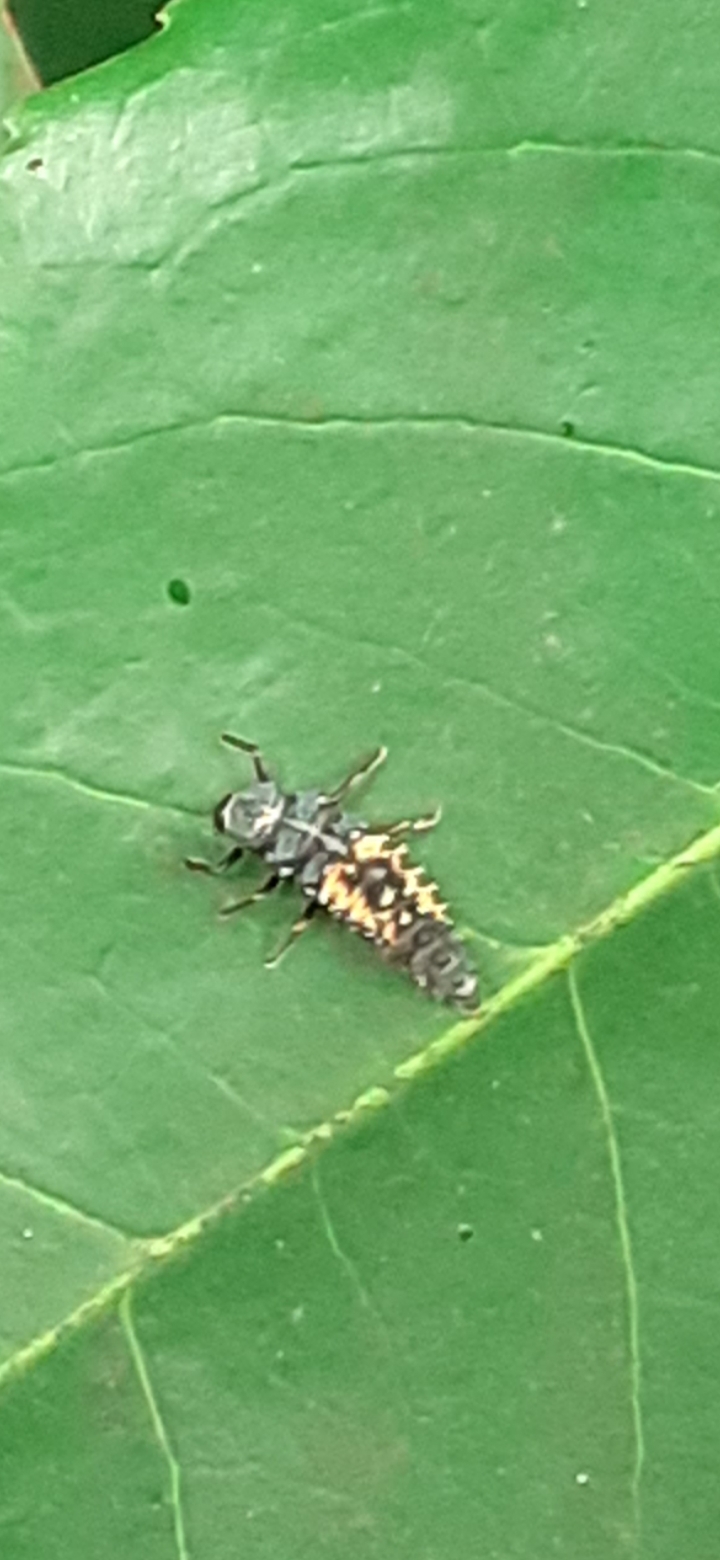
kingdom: Animalia
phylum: Arthropoda
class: Insecta
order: Coleoptera
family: Coccinellidae
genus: Harmonia
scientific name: Harmonia axyridis
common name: Harlequin ladybird
